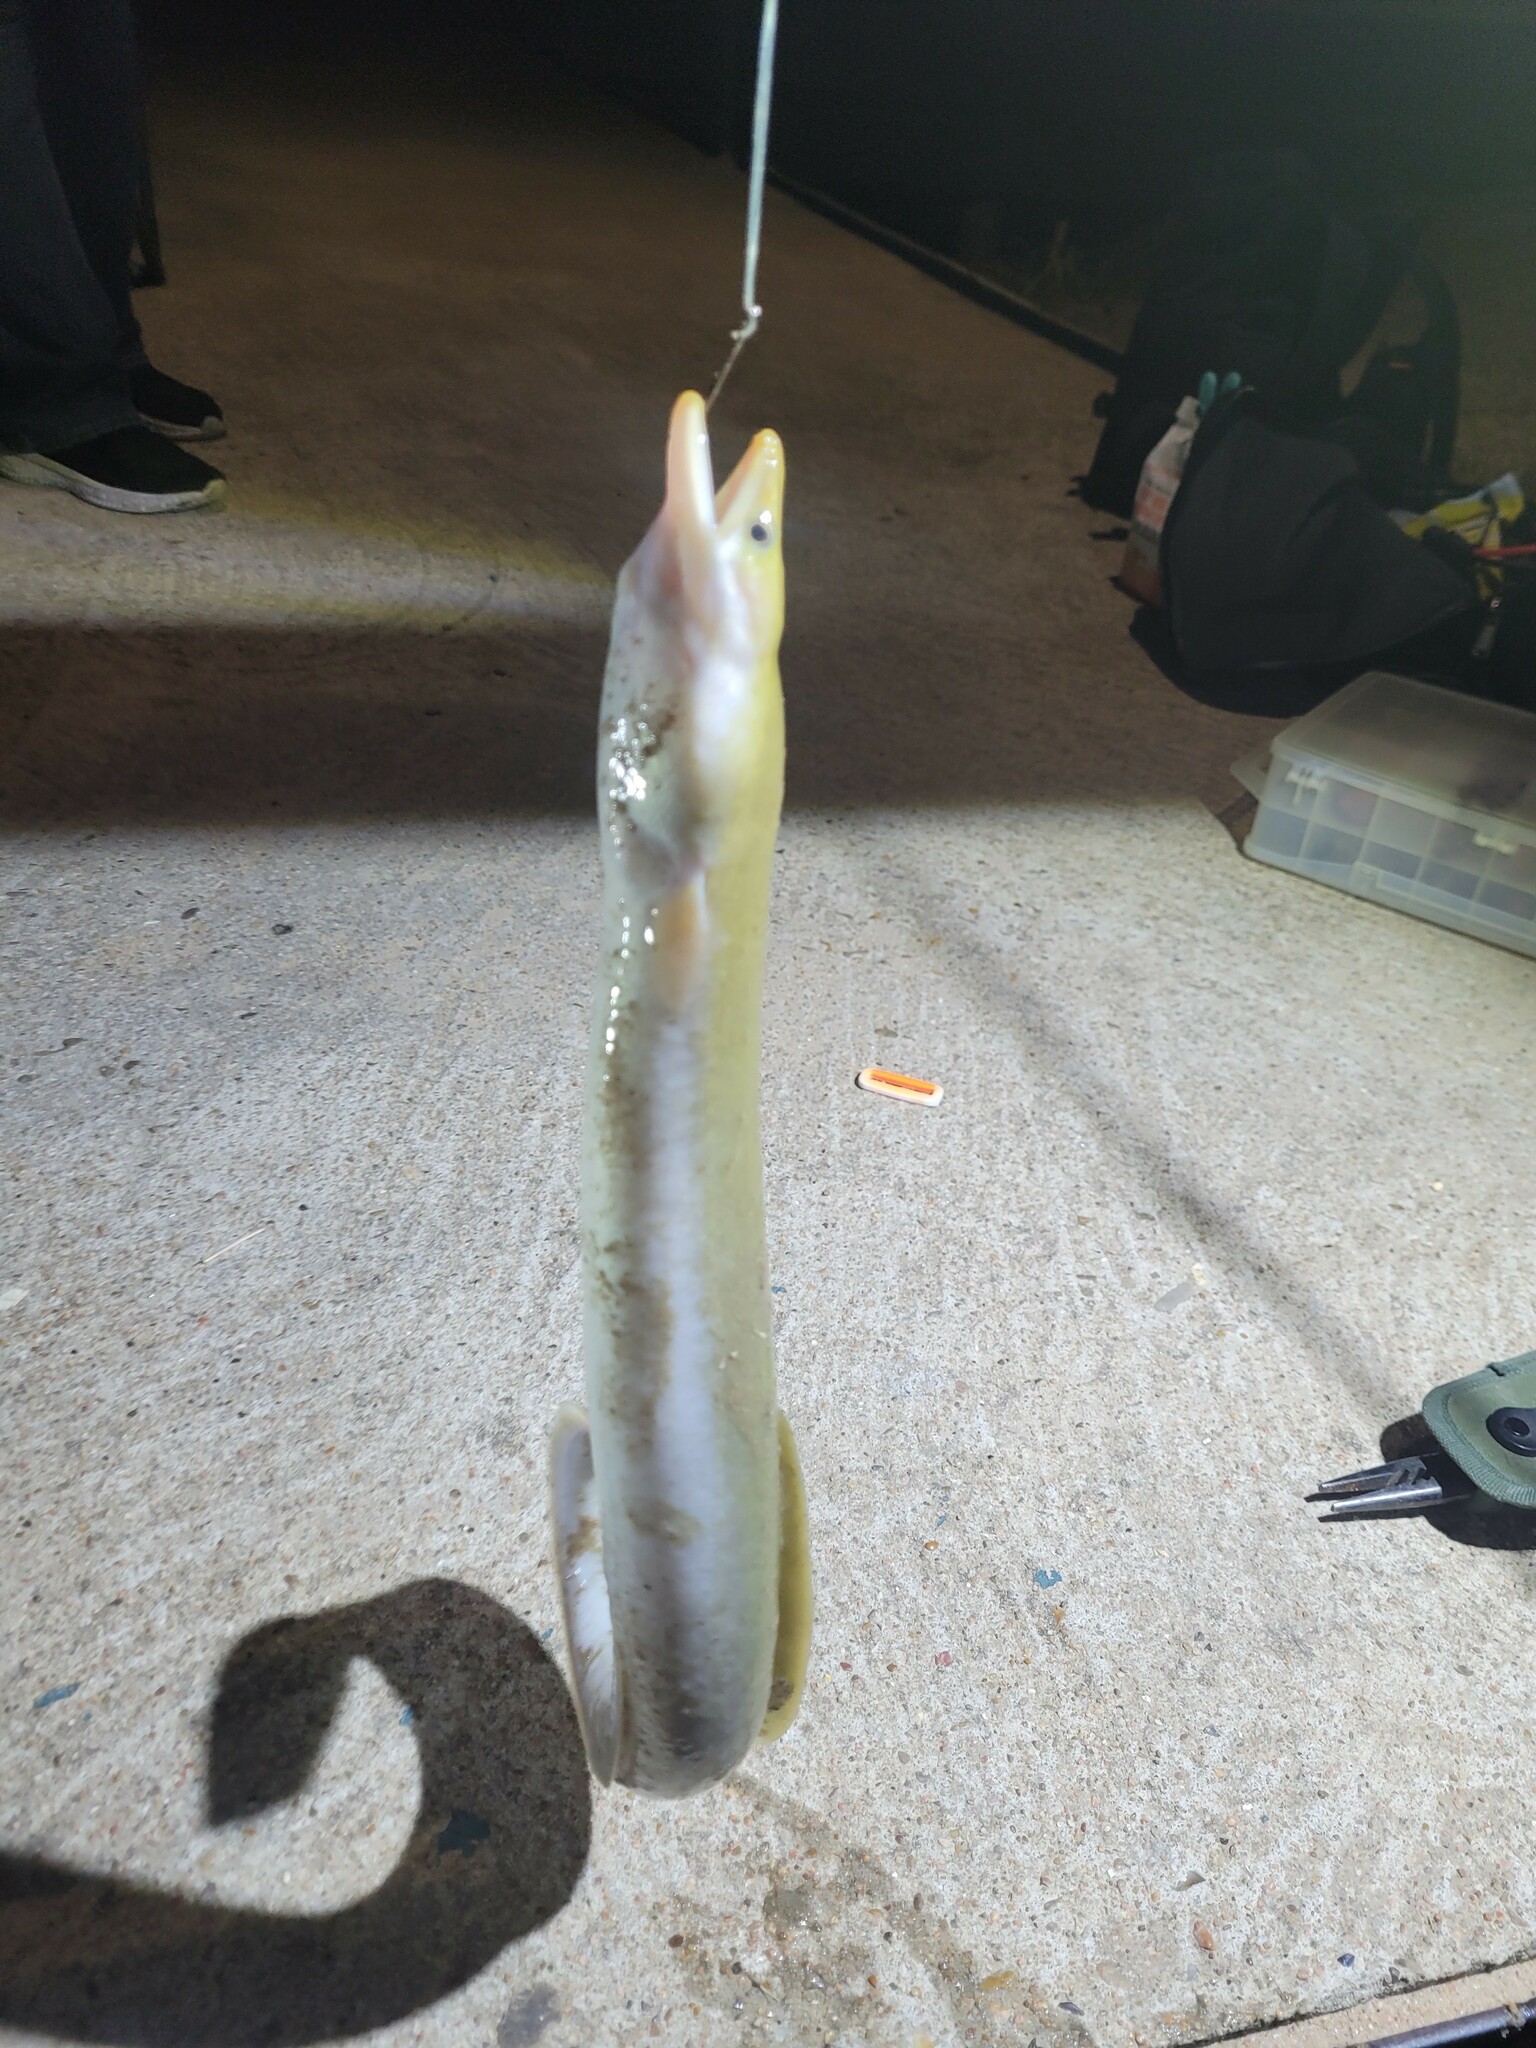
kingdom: Animalia
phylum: Chordata
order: Anguilliformes
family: Anguillidae
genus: Anguilla
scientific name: Anguilla rostrata
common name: American eel
